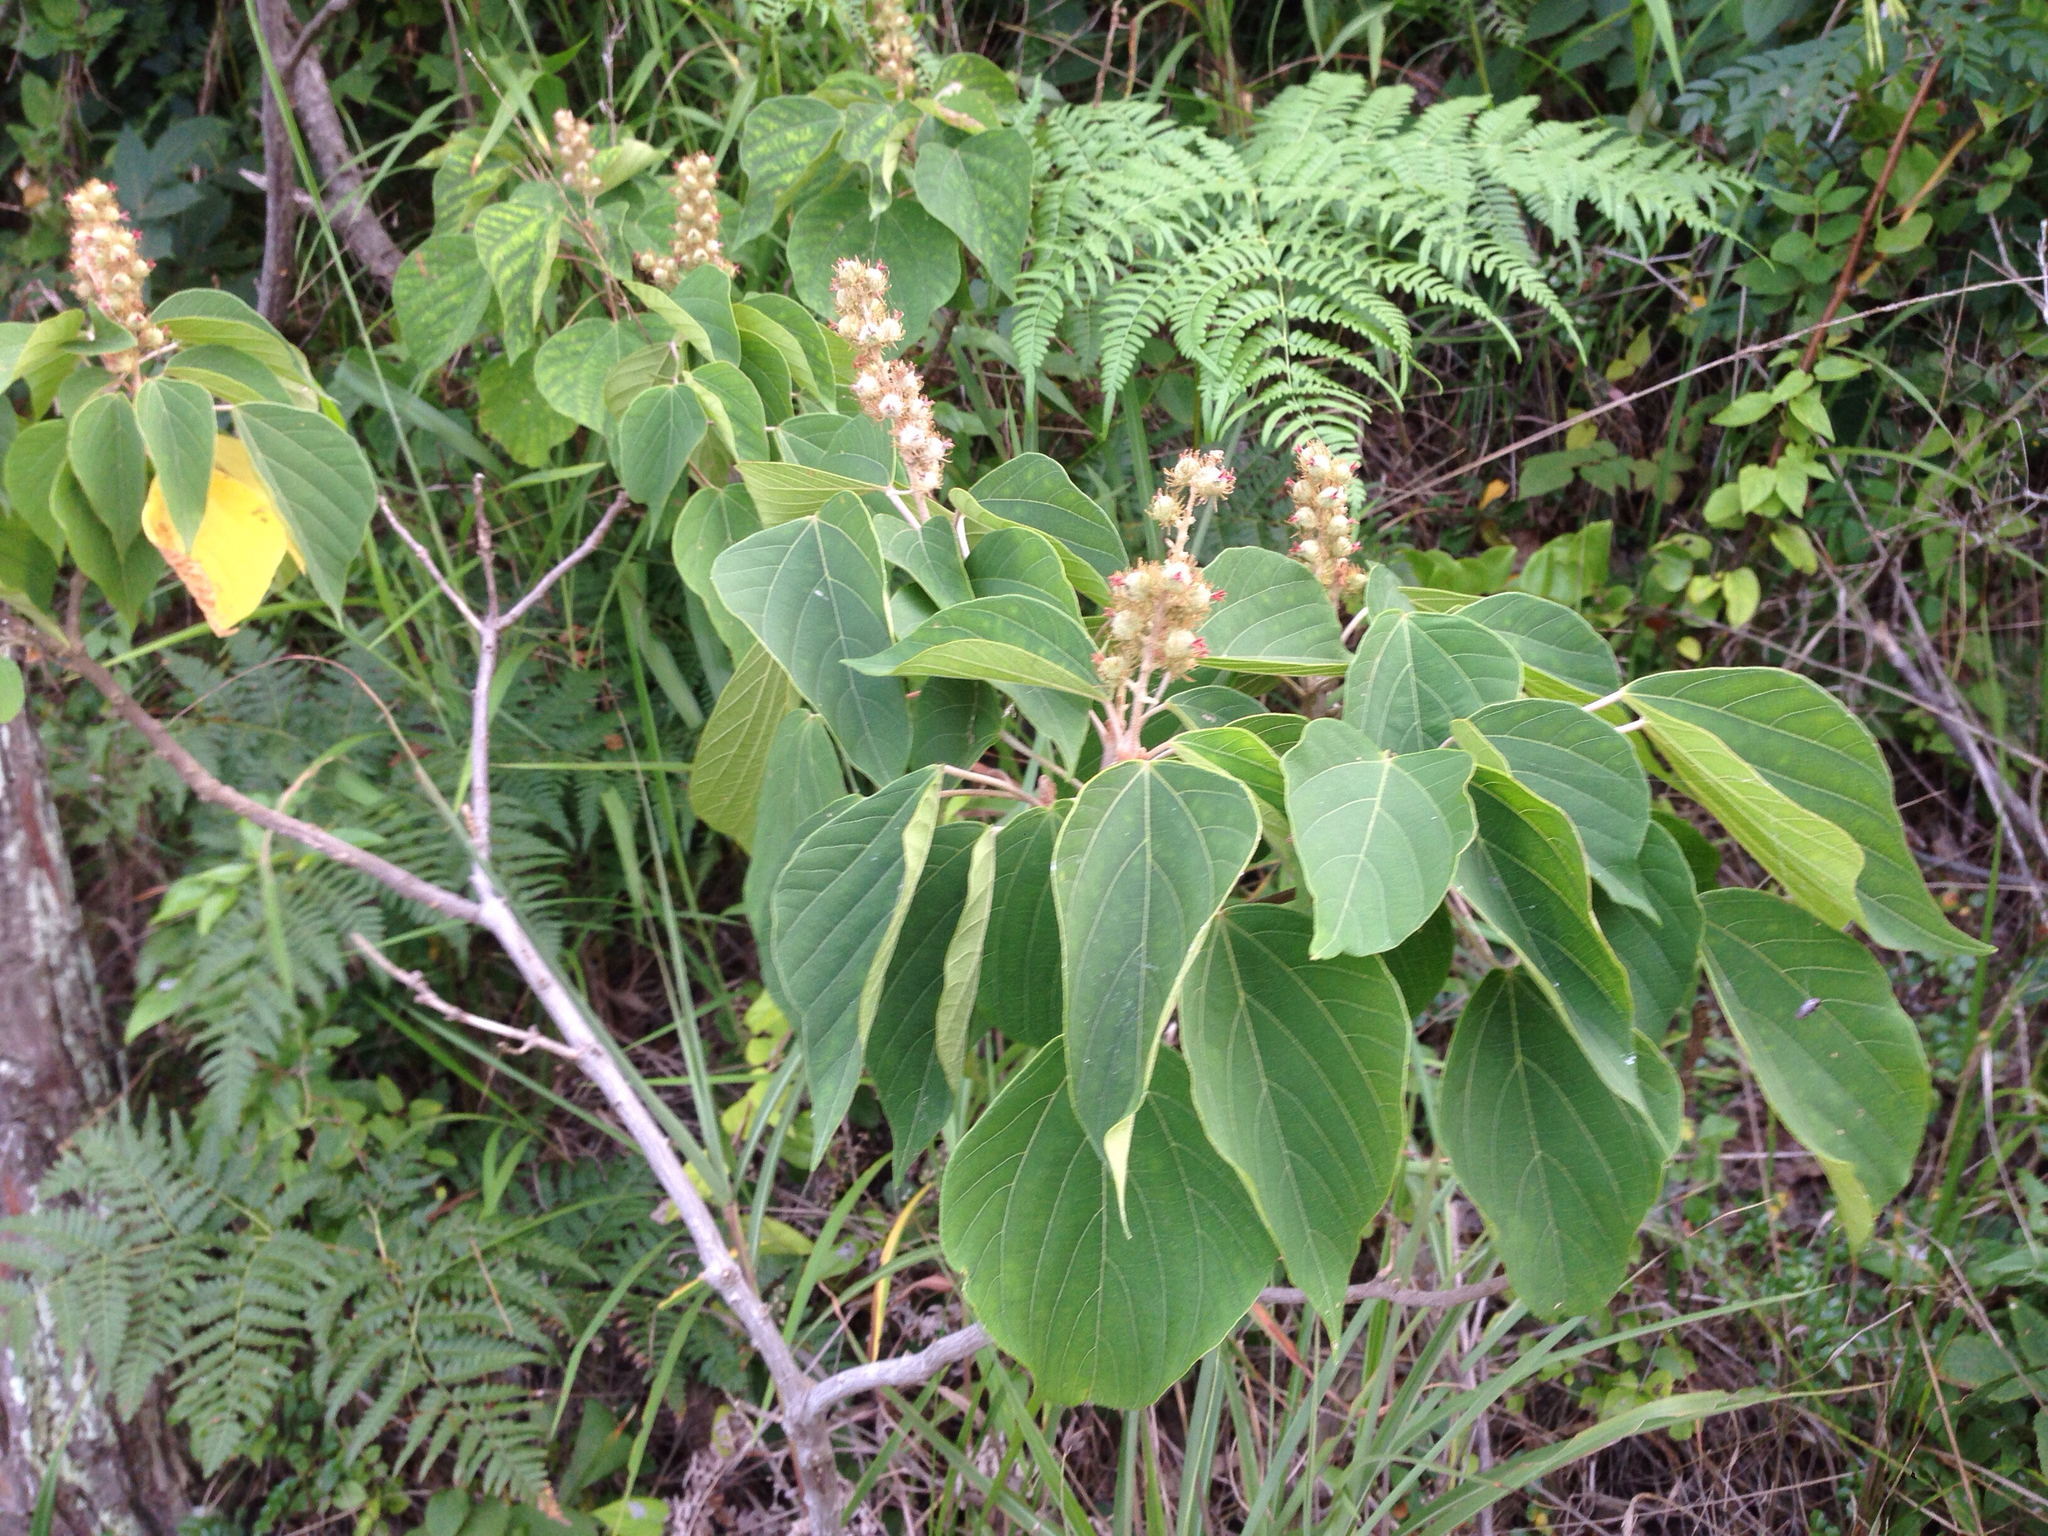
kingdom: Plantae
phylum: Tracheophyta
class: Magnoliopsida
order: Malpighiales
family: Euphorbiaceae
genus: Mallotus
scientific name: Mallotus japonicus
